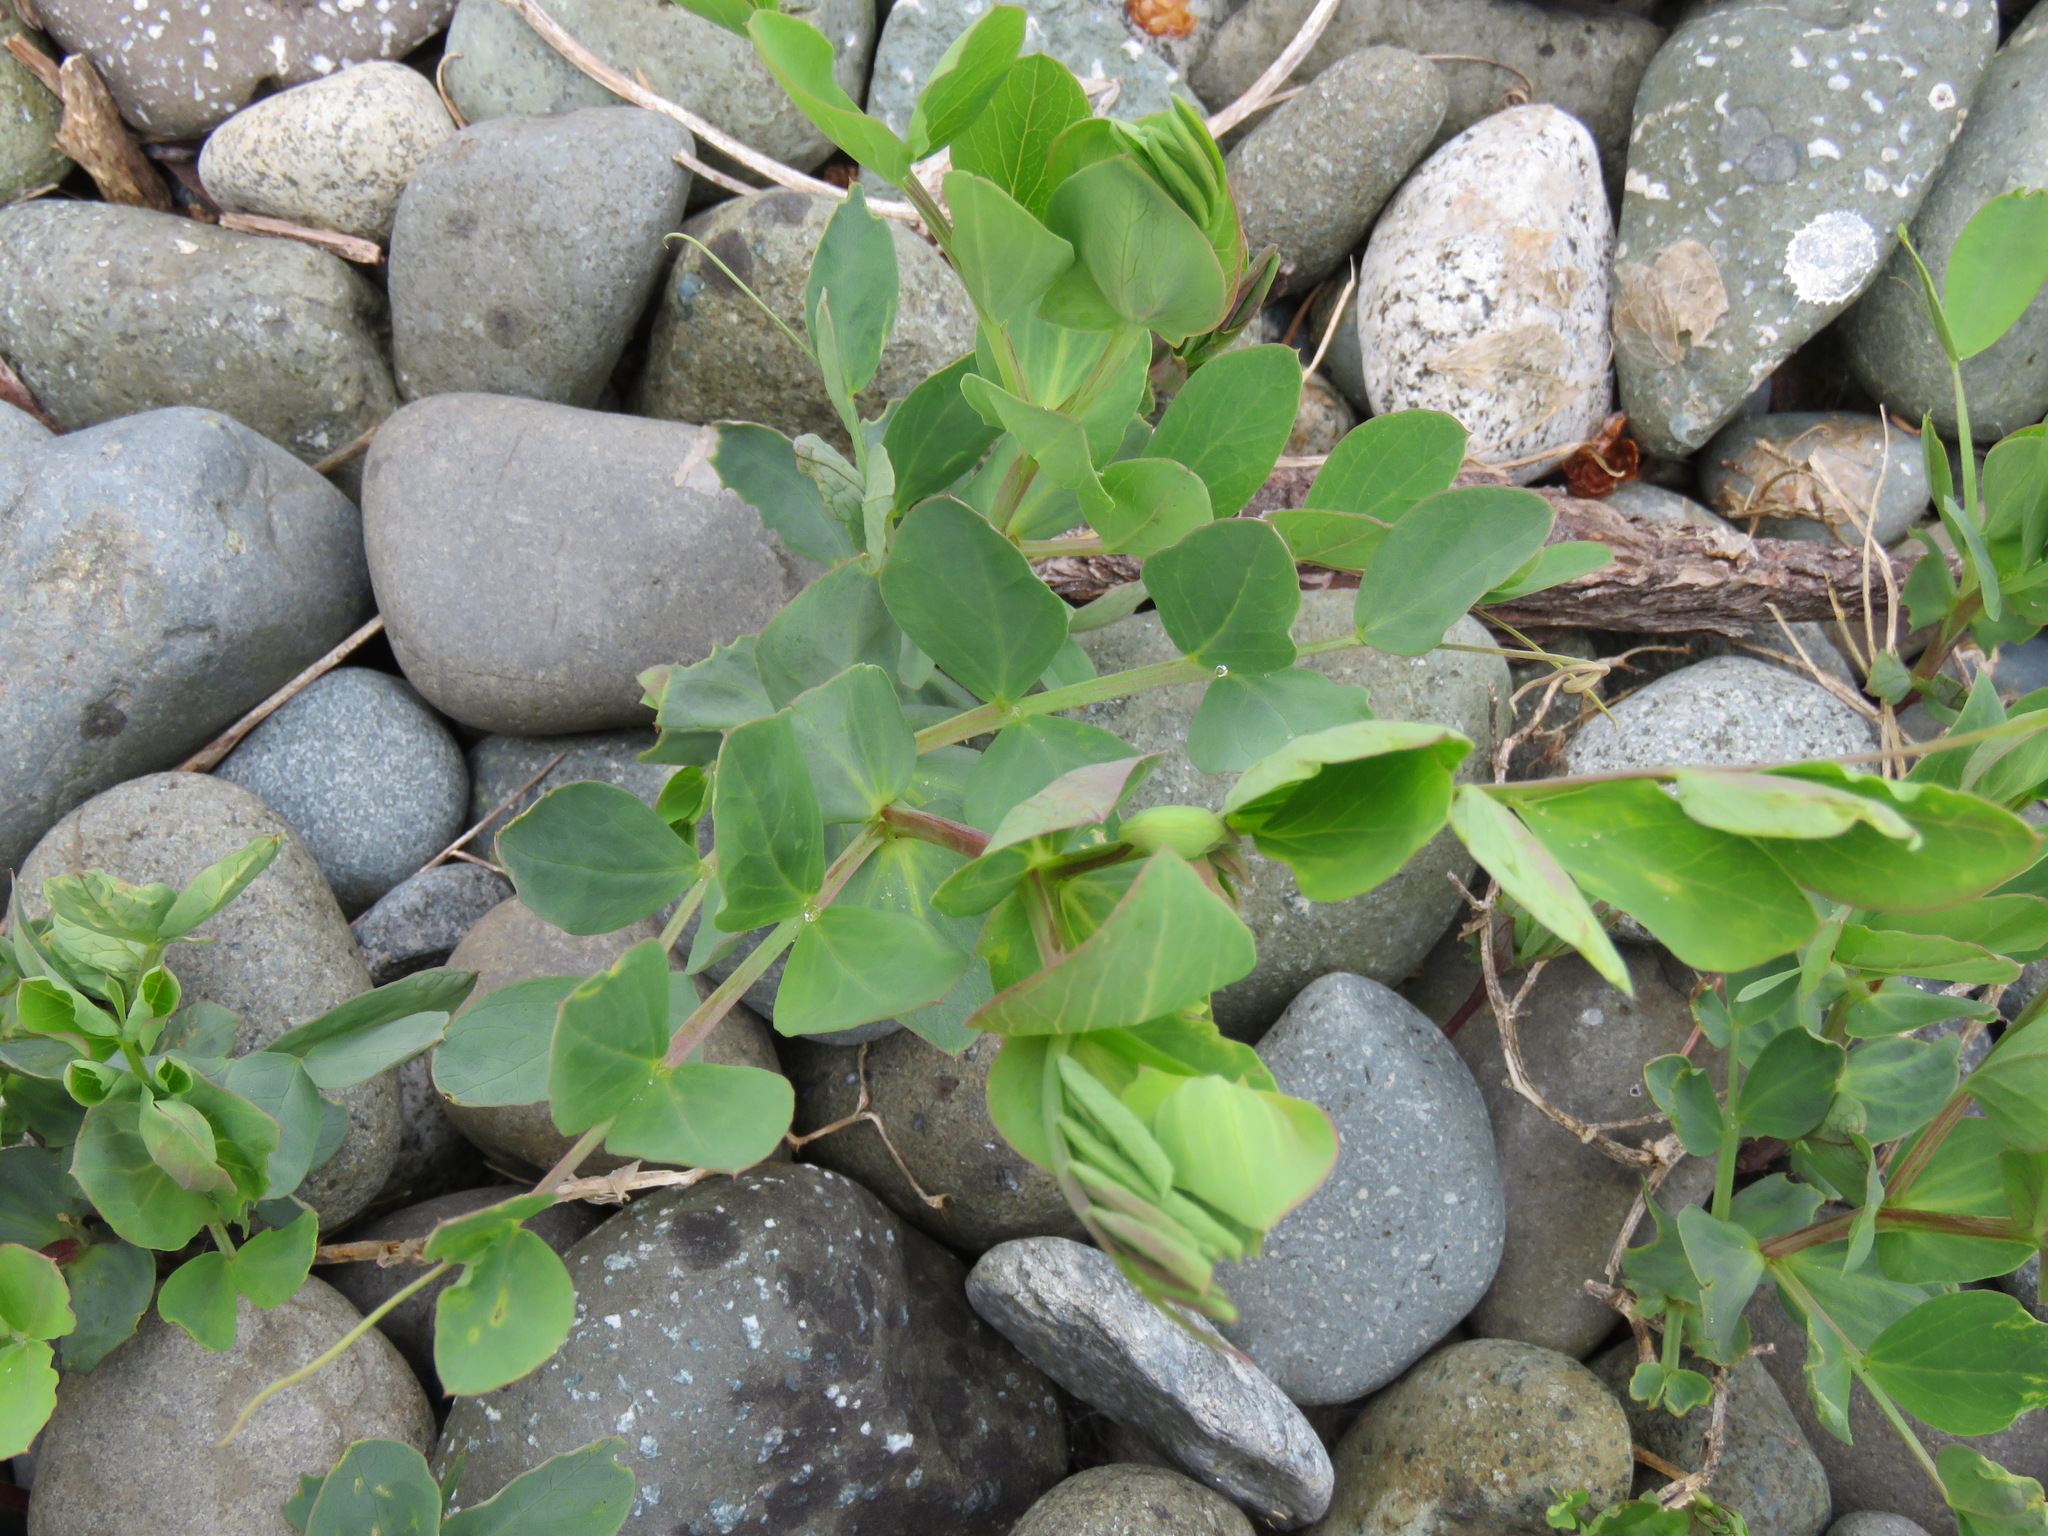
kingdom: Plantae
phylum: Tracheophyta
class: Magnoliopsida
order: Fabales
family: Fabaceae
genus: Lathyrus
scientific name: Lathyrus japonicus
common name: Sea pea
